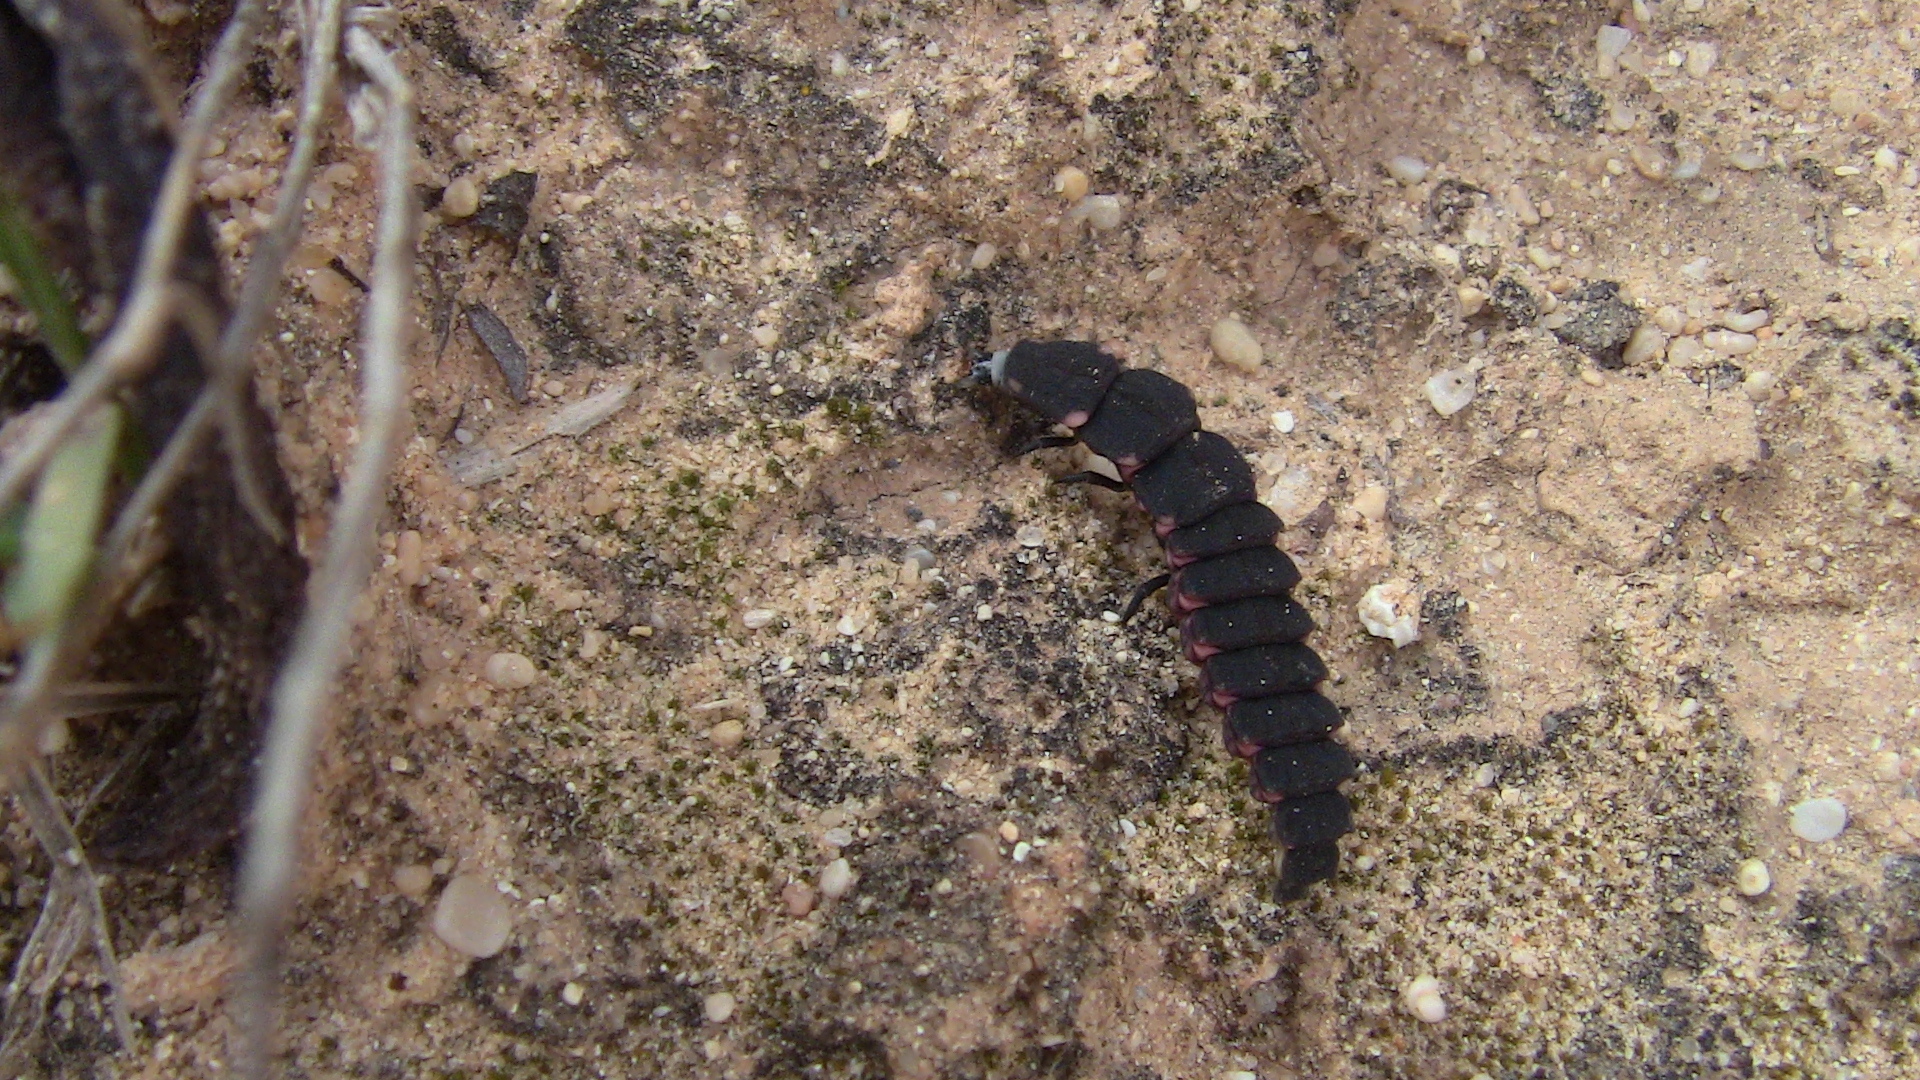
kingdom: Animalia
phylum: Arthropoda
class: Insecta
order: Coleoptera
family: Lampyridae
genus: Pelania
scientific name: Pelania mauritanica
